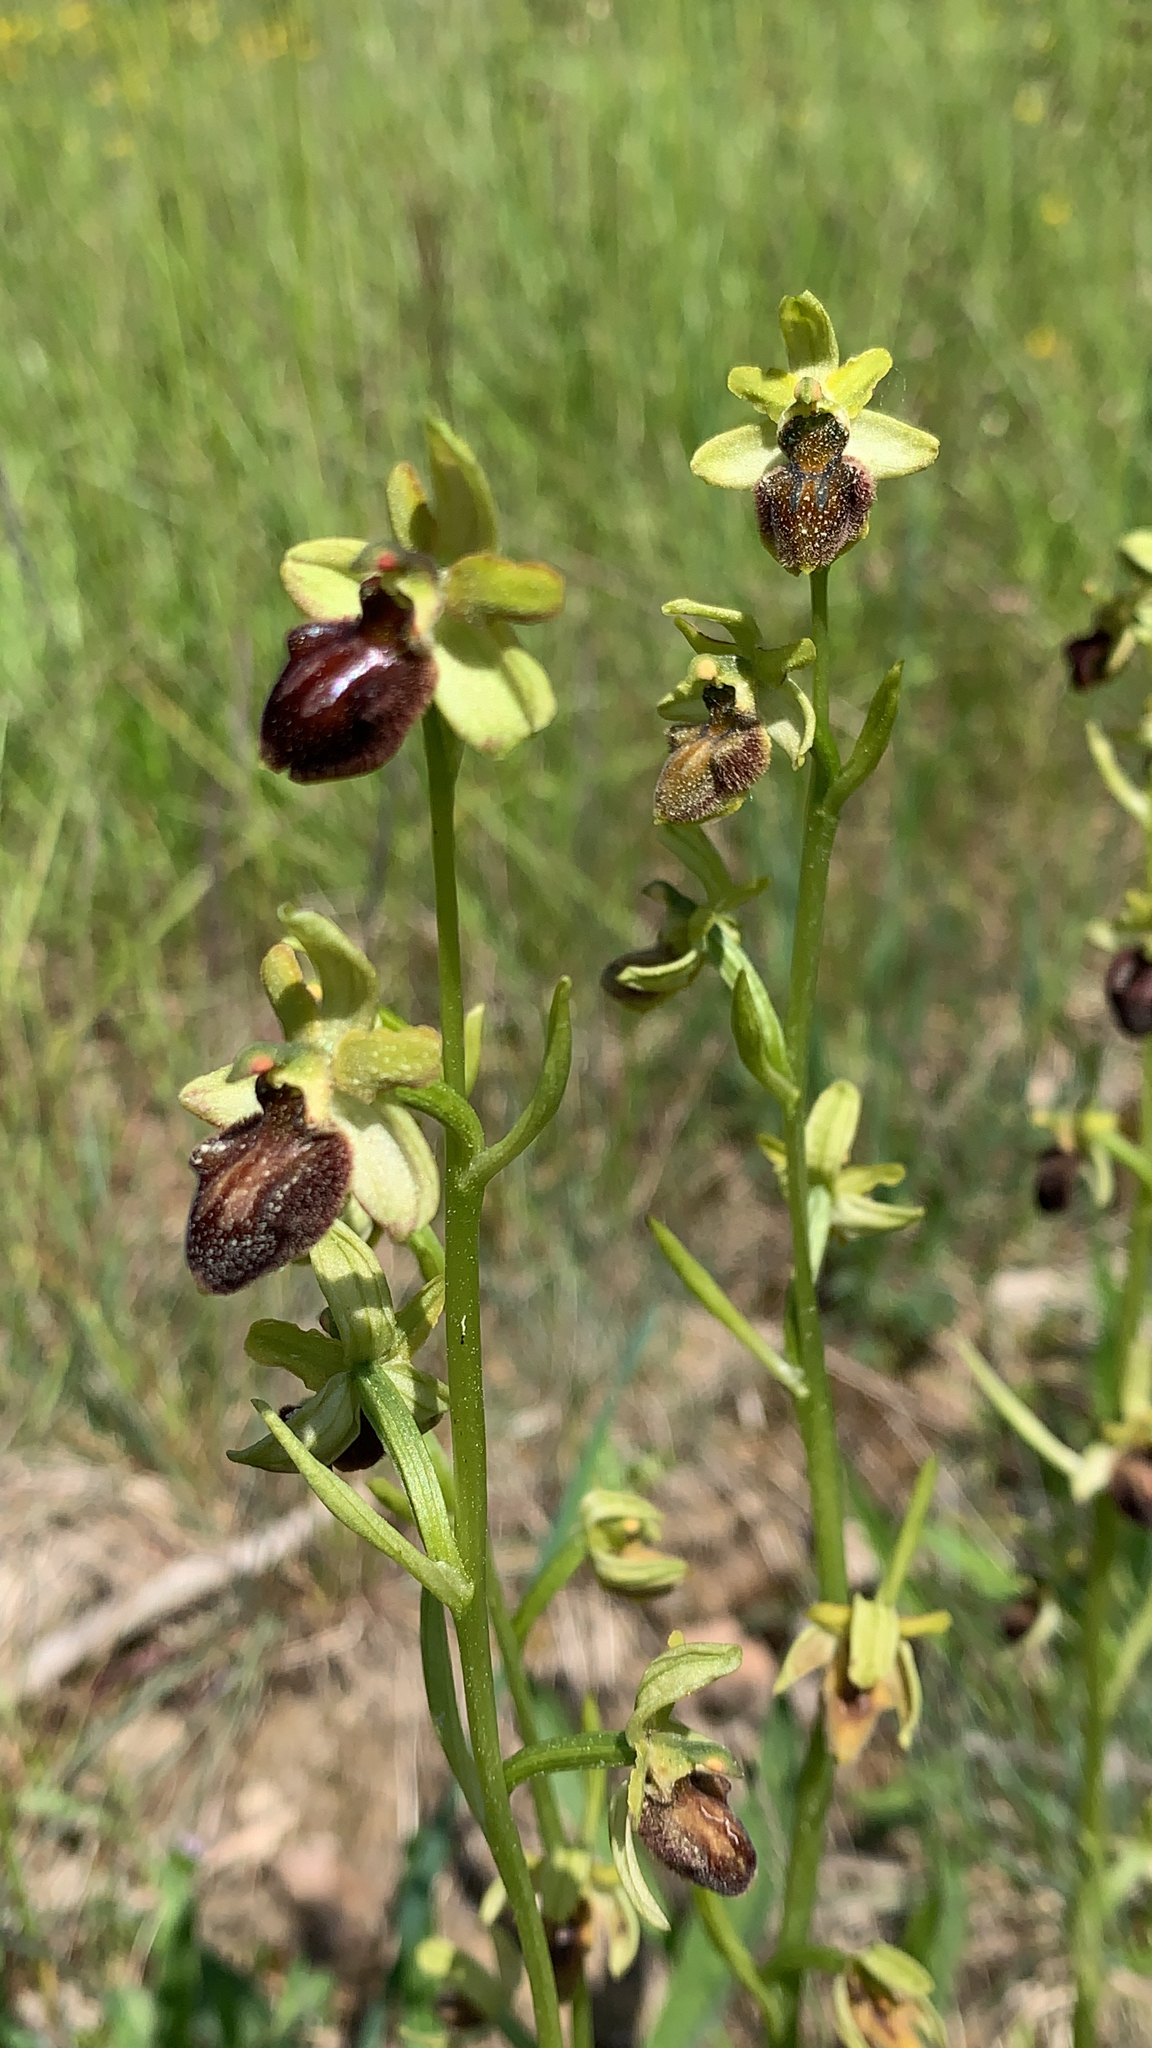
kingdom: Plantae
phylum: Tracheophyta
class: Liliopsida
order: Asparagales
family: Orchidaceae
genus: Ophrys
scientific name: Ophrys sphegodes
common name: Early spider-orchid
